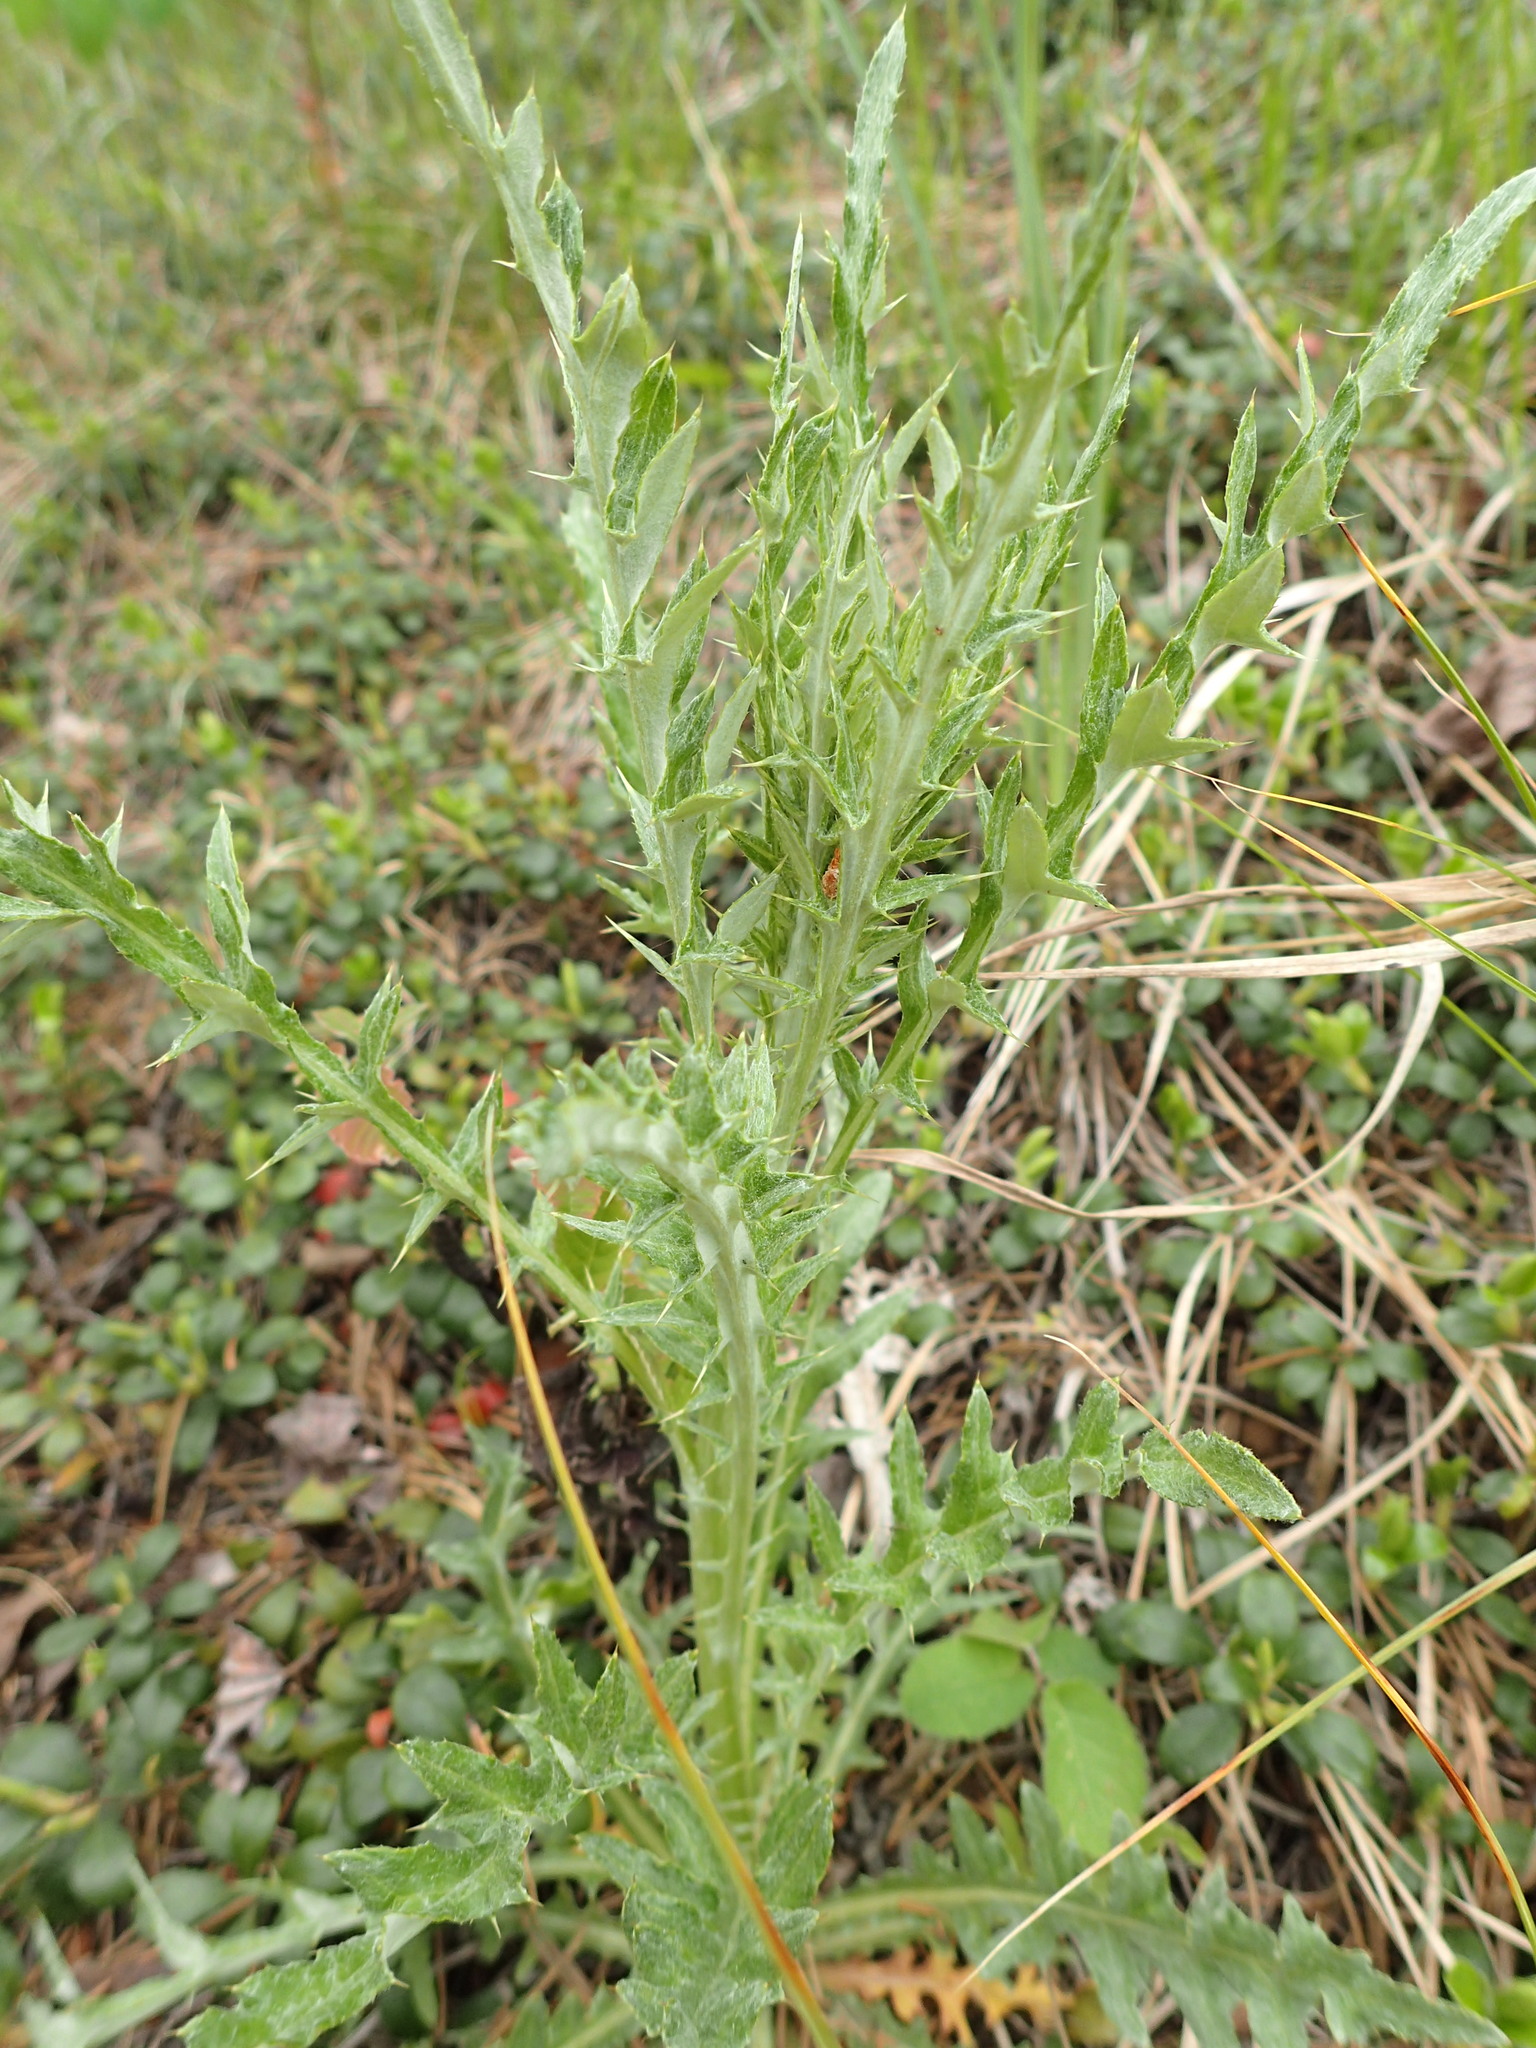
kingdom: Plantae
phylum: Tracheophyta
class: Magnoliopsida
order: Asterales
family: Asteraceae
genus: Cirsium
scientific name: Cirsium flodmanii
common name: Flodman's thistle
